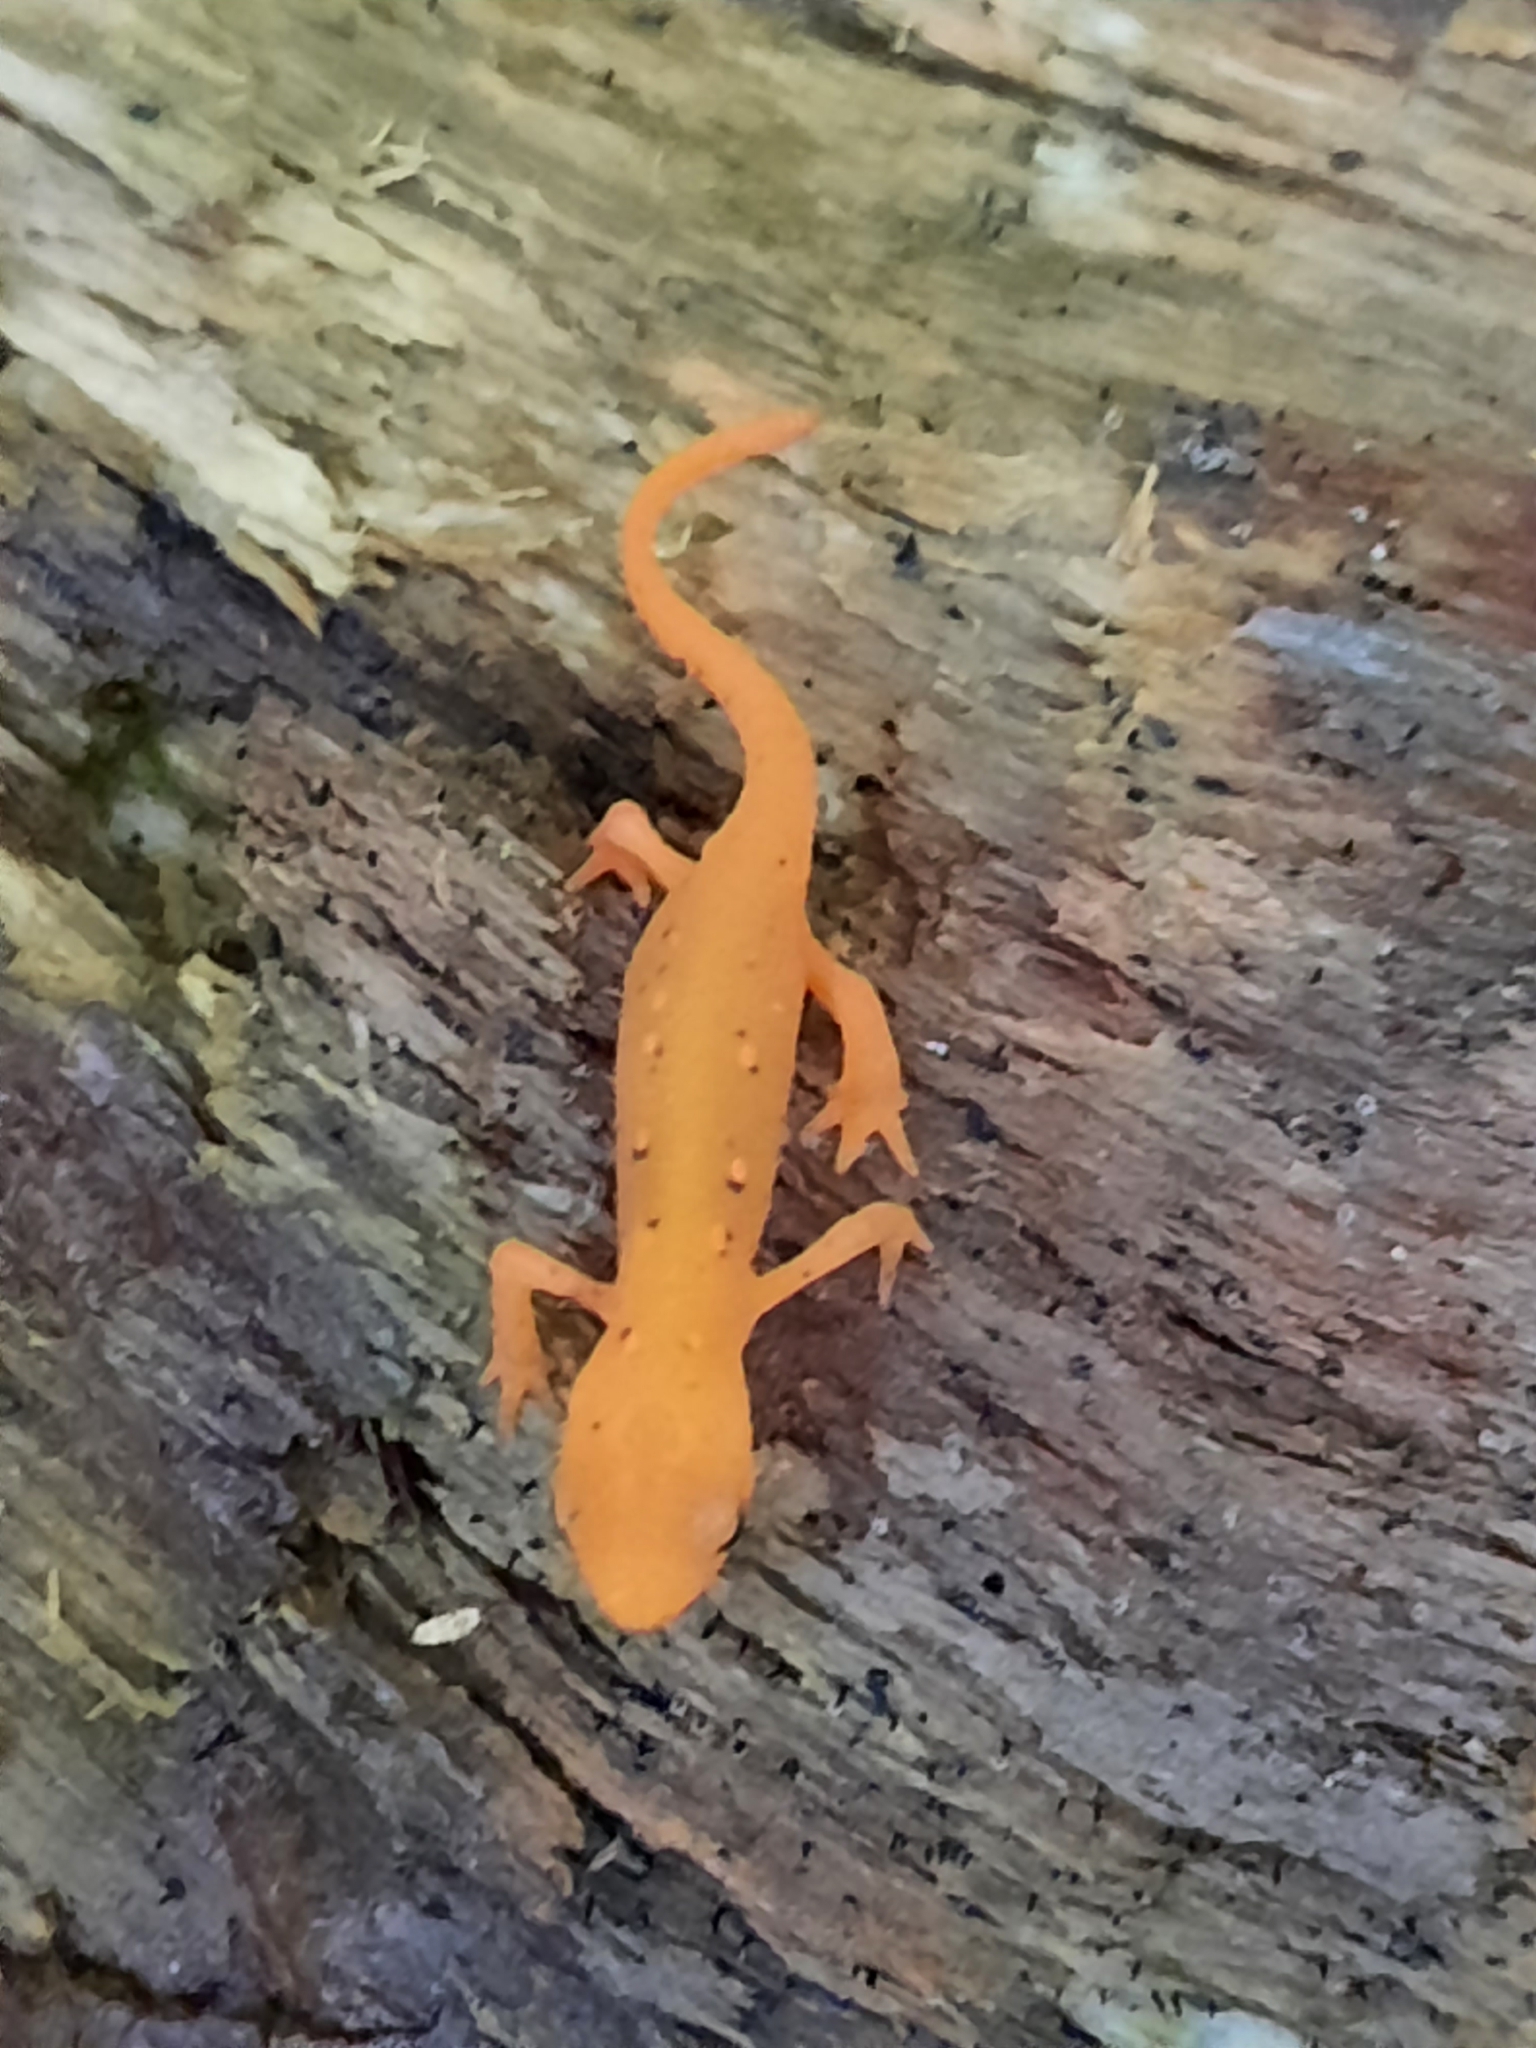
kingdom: Animalia
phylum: Chordata
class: Amphibia
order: Caudata
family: Salamandridae
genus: Notophthalmus
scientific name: Notophthalmus viridescens
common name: Eastern newt
